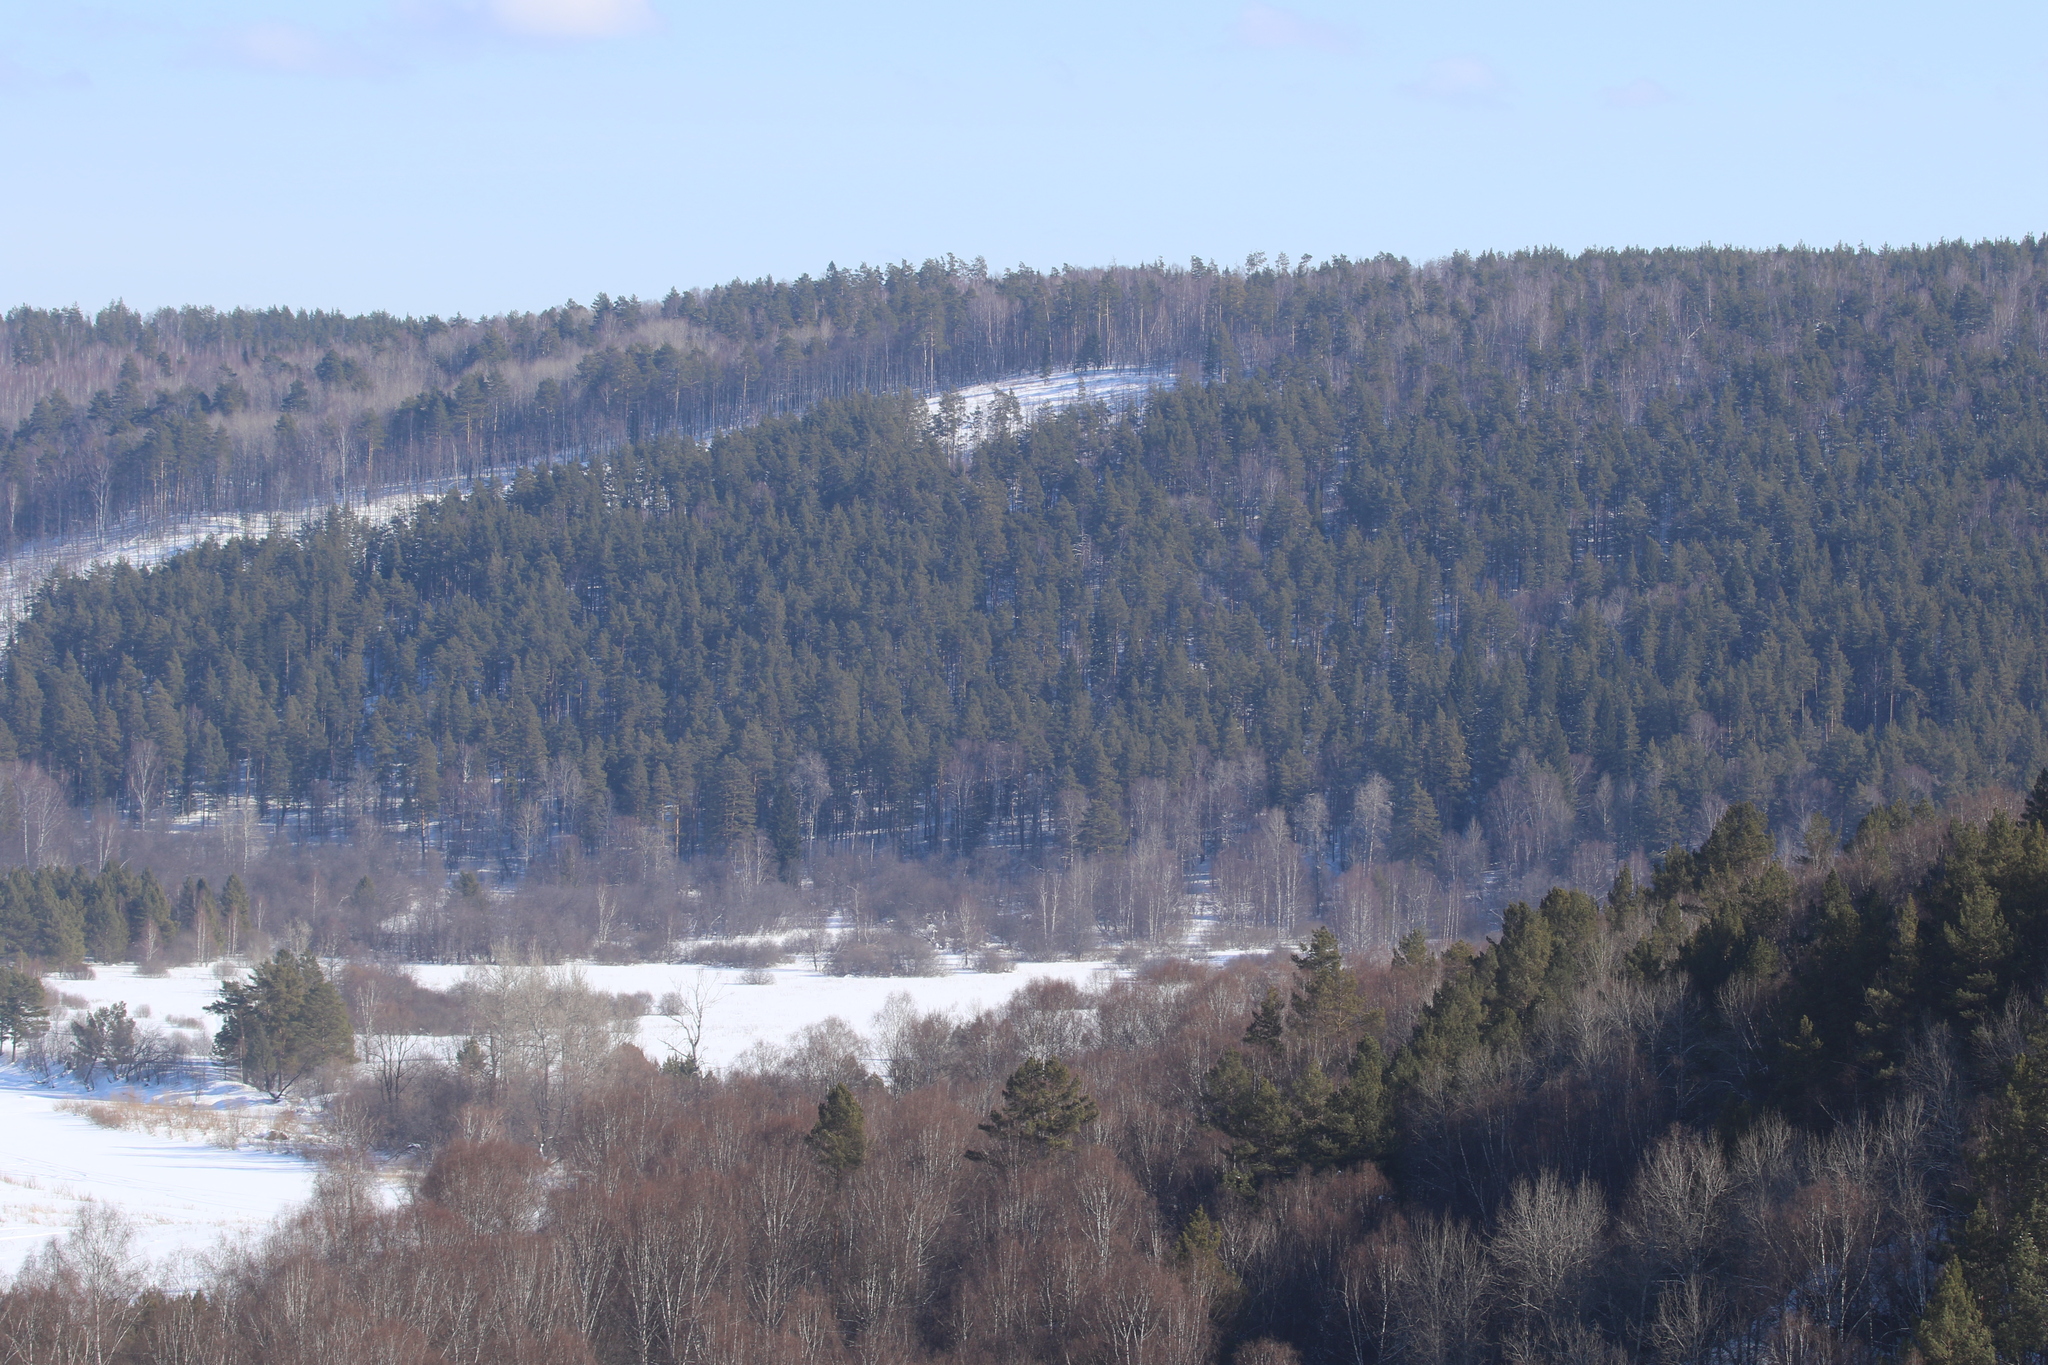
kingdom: Plantae
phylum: Tracheophyta
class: Pinopsida
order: Pinales
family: Pinaceae
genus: Pinus
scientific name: Pinus sylvestris
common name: Scots pine
